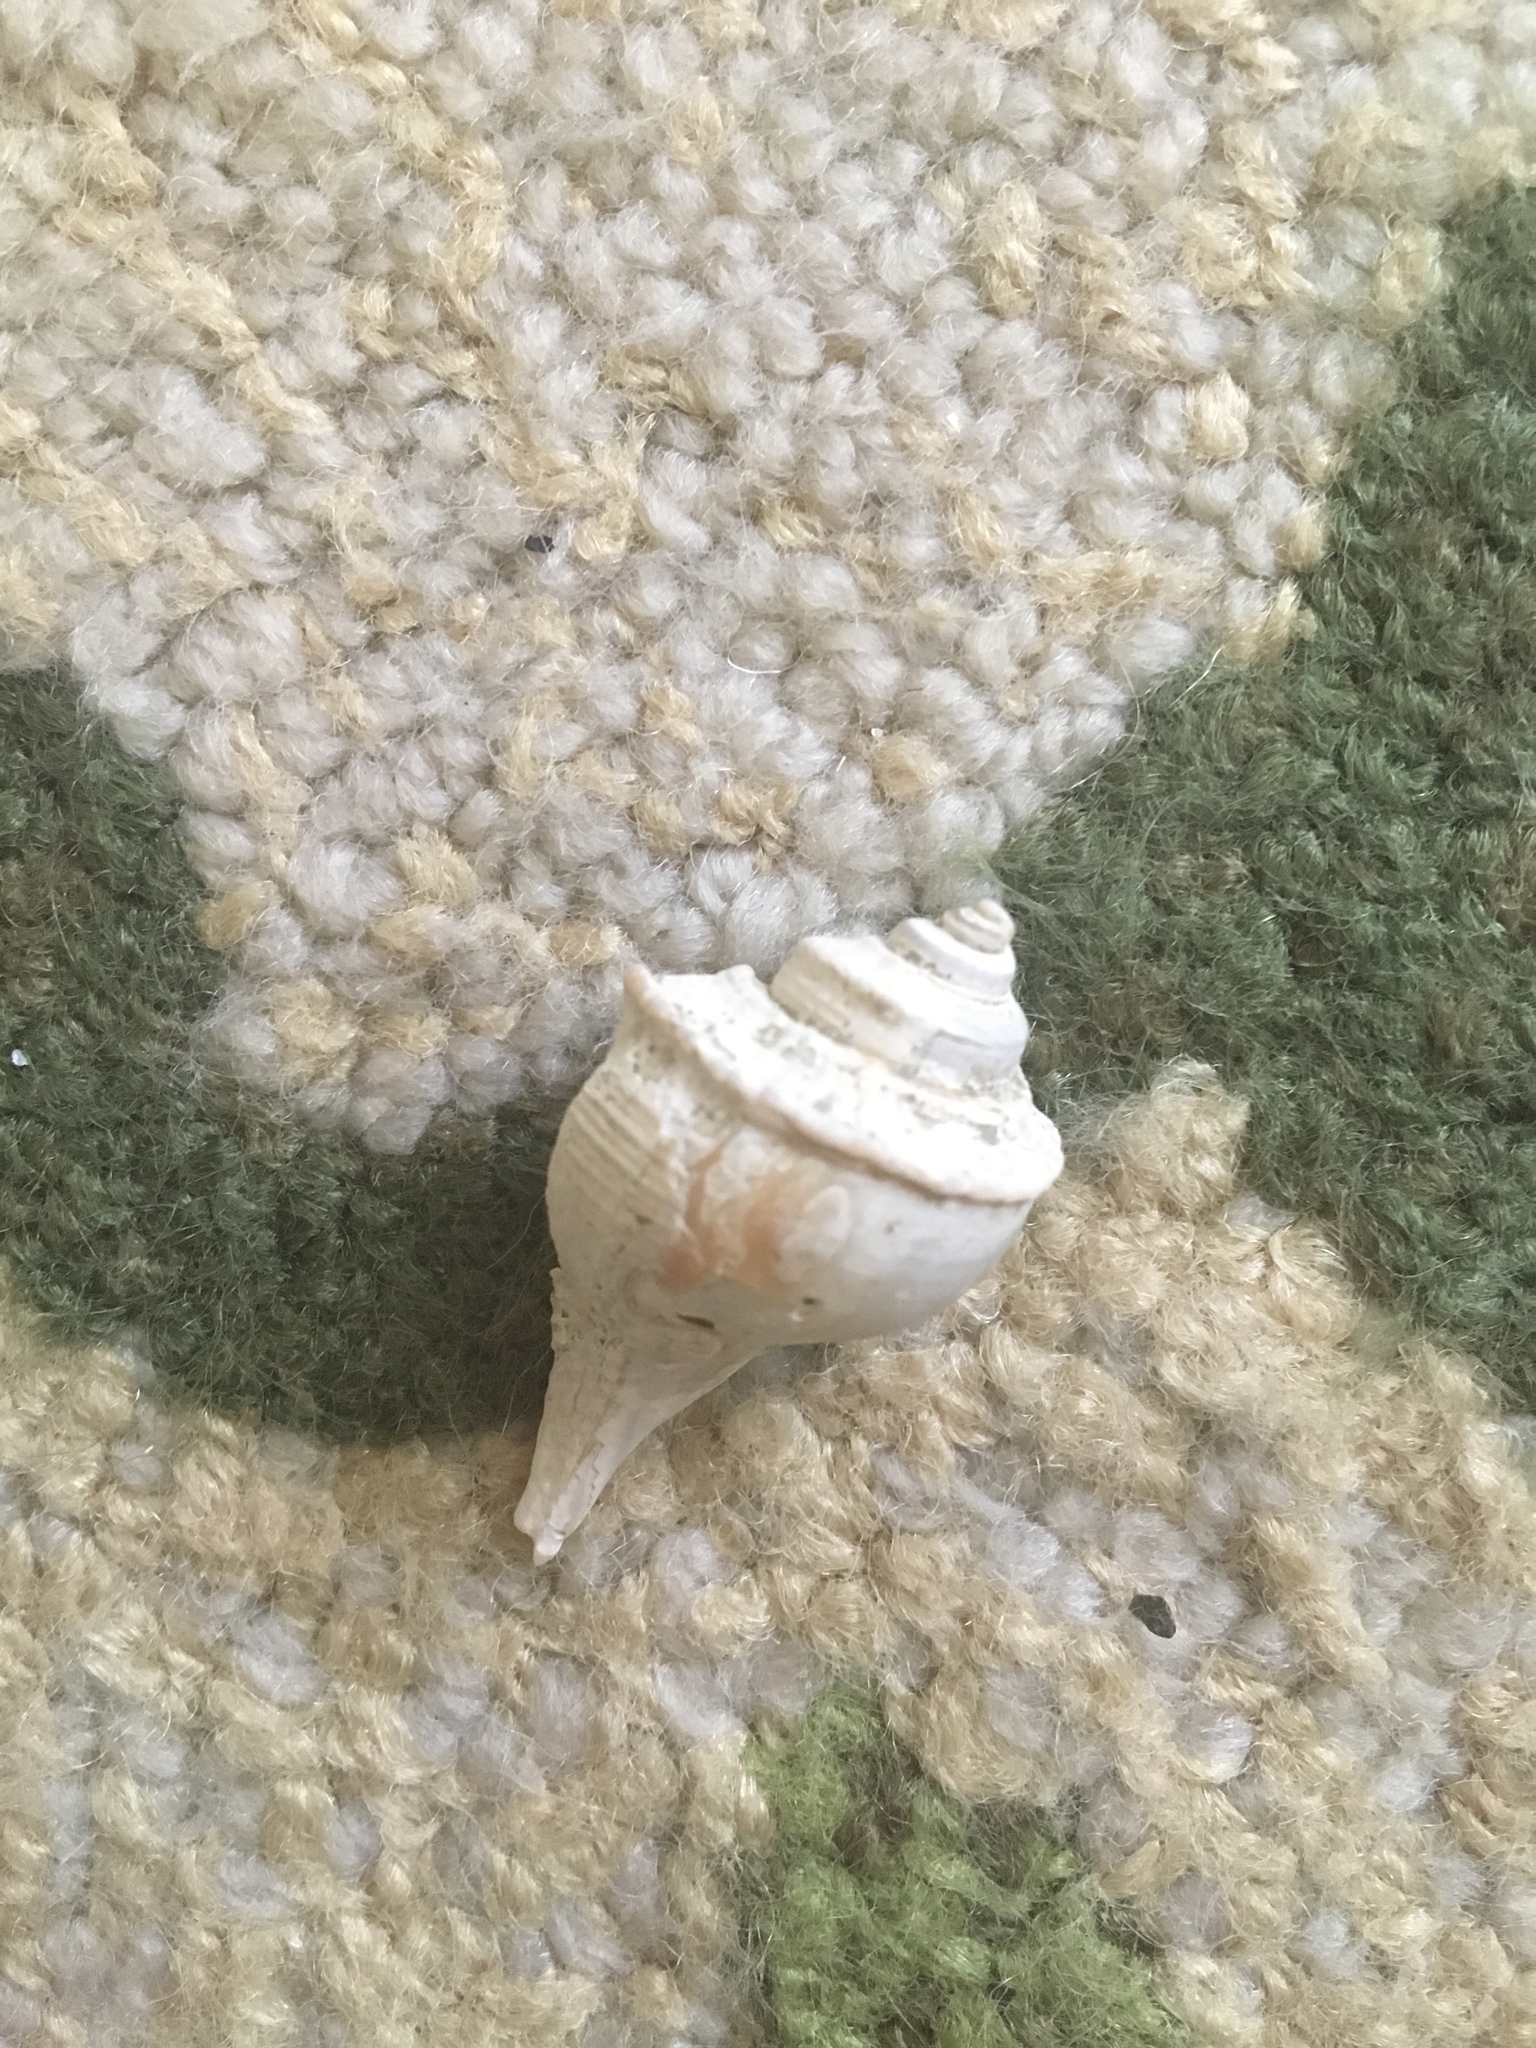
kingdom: Animalia
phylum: Mollusca
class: Gastropoda
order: Neogastropoda
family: Busyconidae
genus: Busycotypus
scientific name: Busycotypus canaliculatus
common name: Channeled whelk
